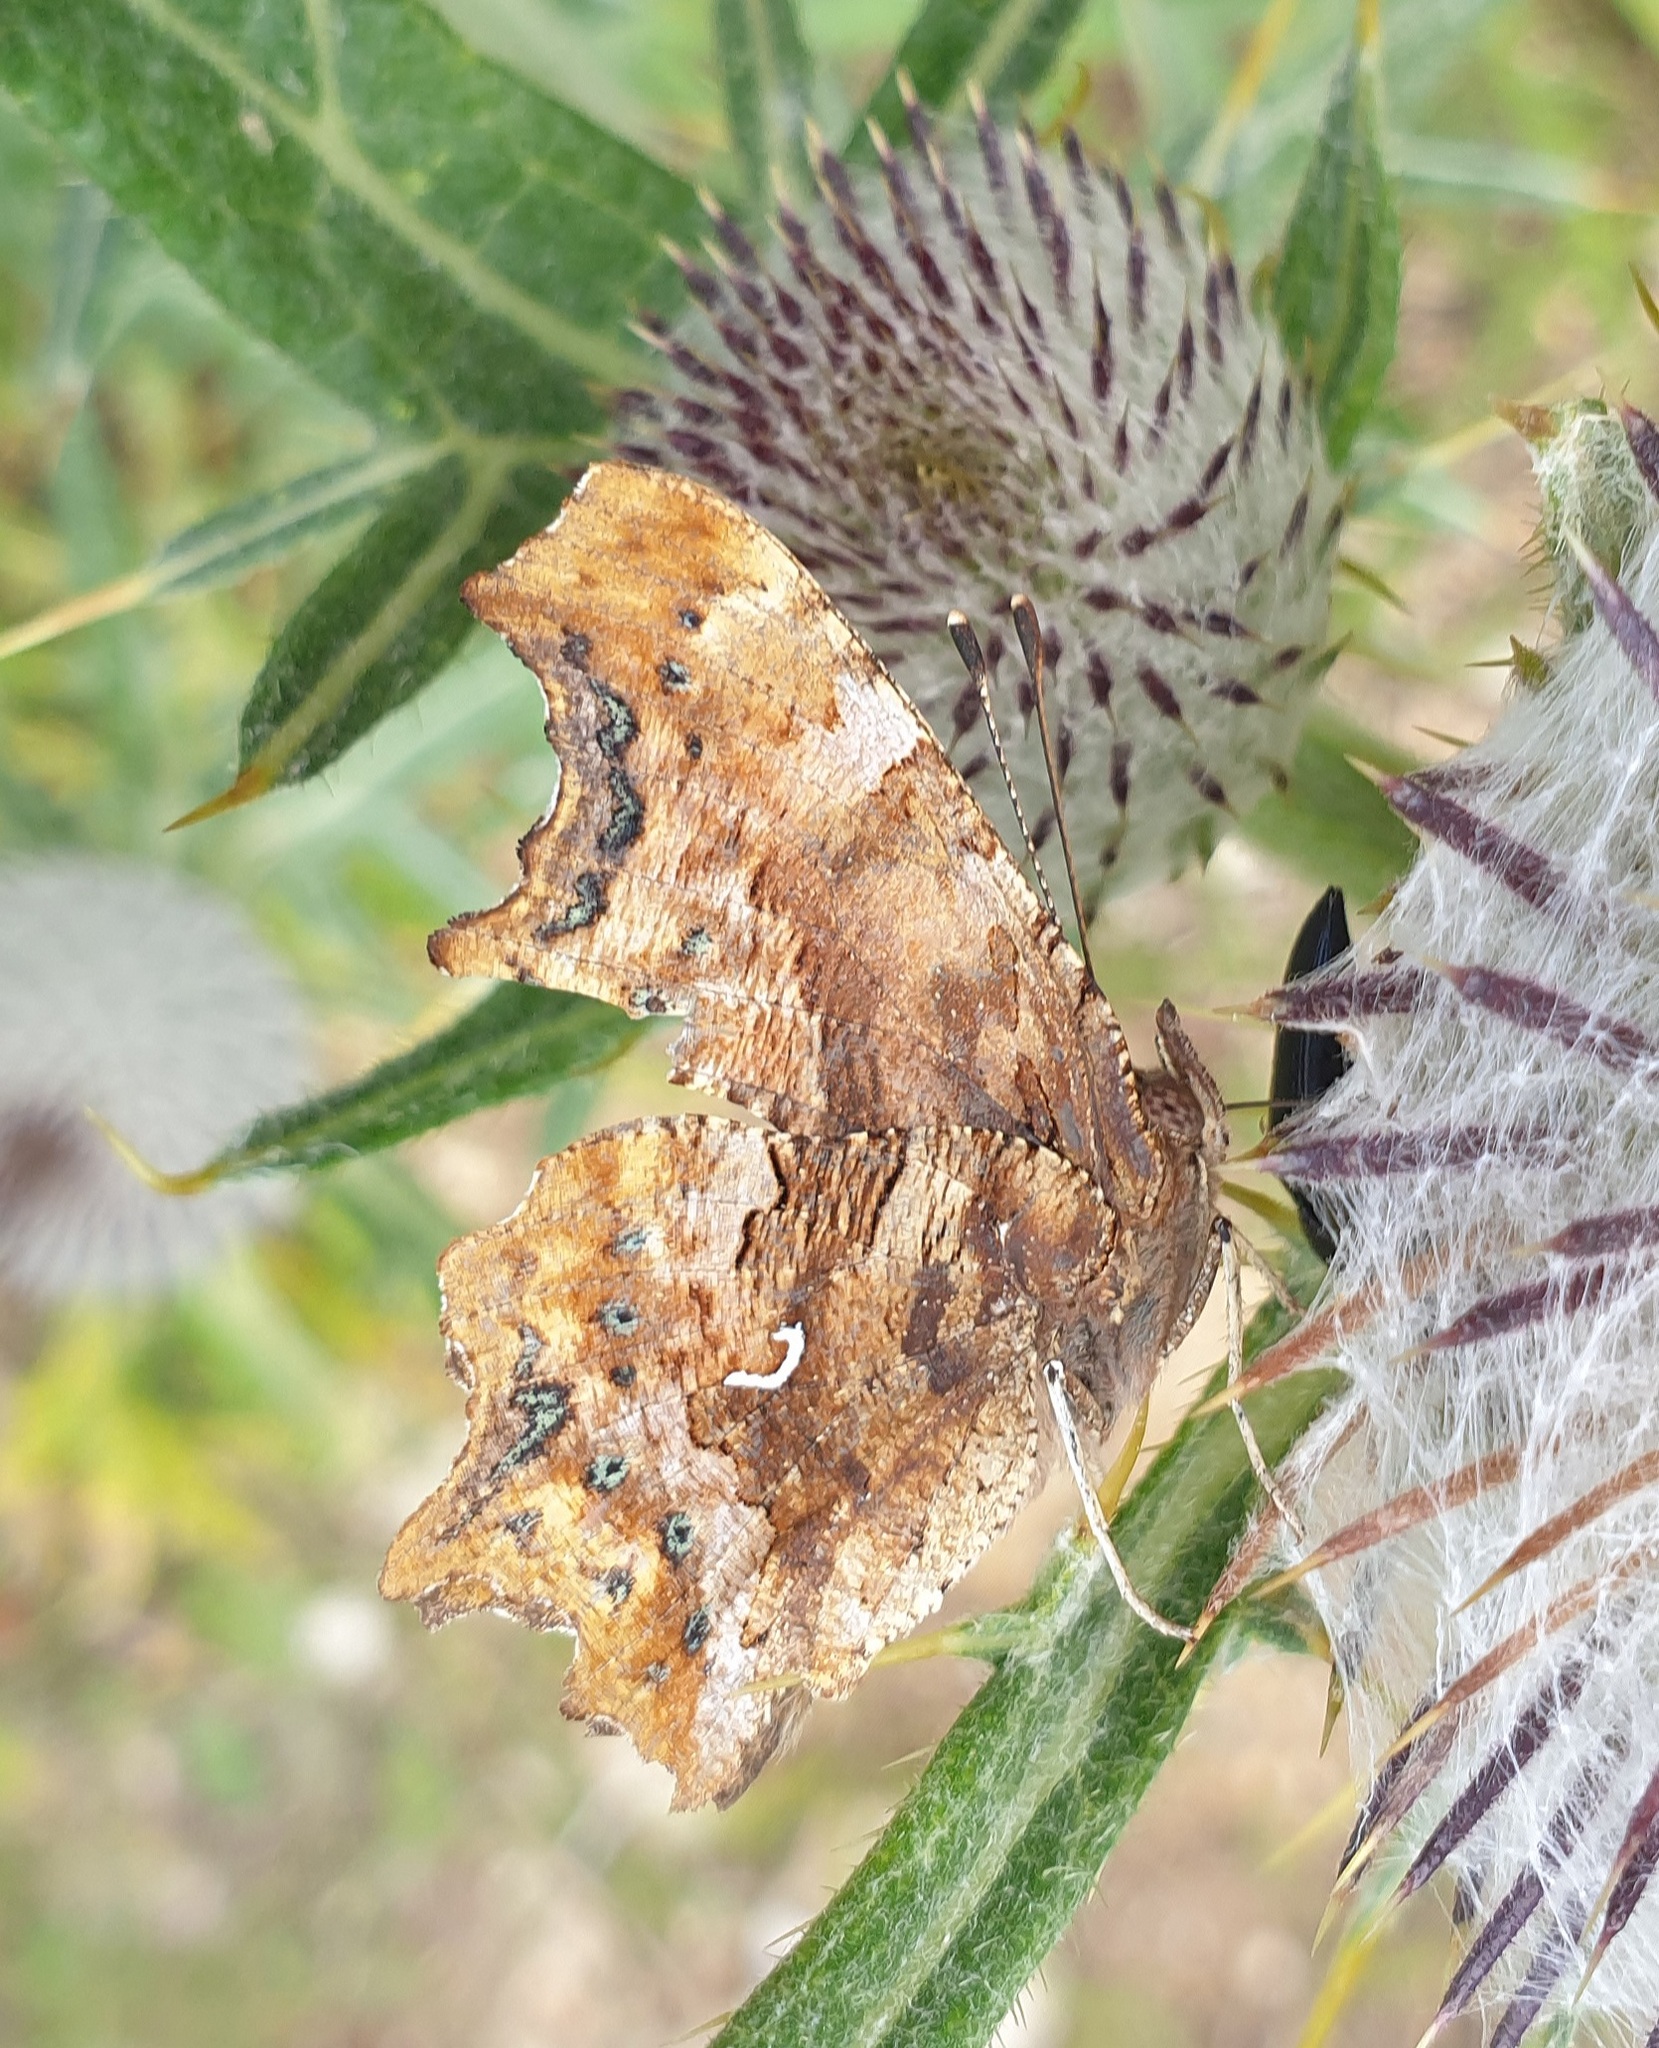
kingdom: Animalia
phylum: Arthropoda
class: Insecta
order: Lepidoptera
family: Nymphalidae
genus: Polygonia
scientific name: Polygonia c-album
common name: Comma
